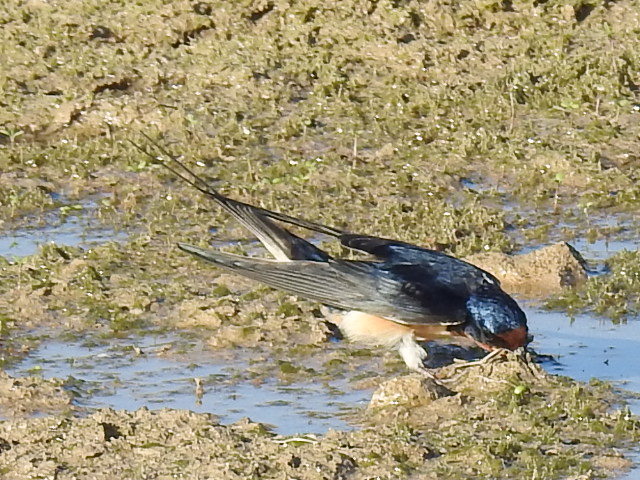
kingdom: Animalia
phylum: Chordata
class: Aves
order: Passeriformes
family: Hirundinidae
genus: Hirundo
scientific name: Hirundo rustica
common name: Barn swallow
